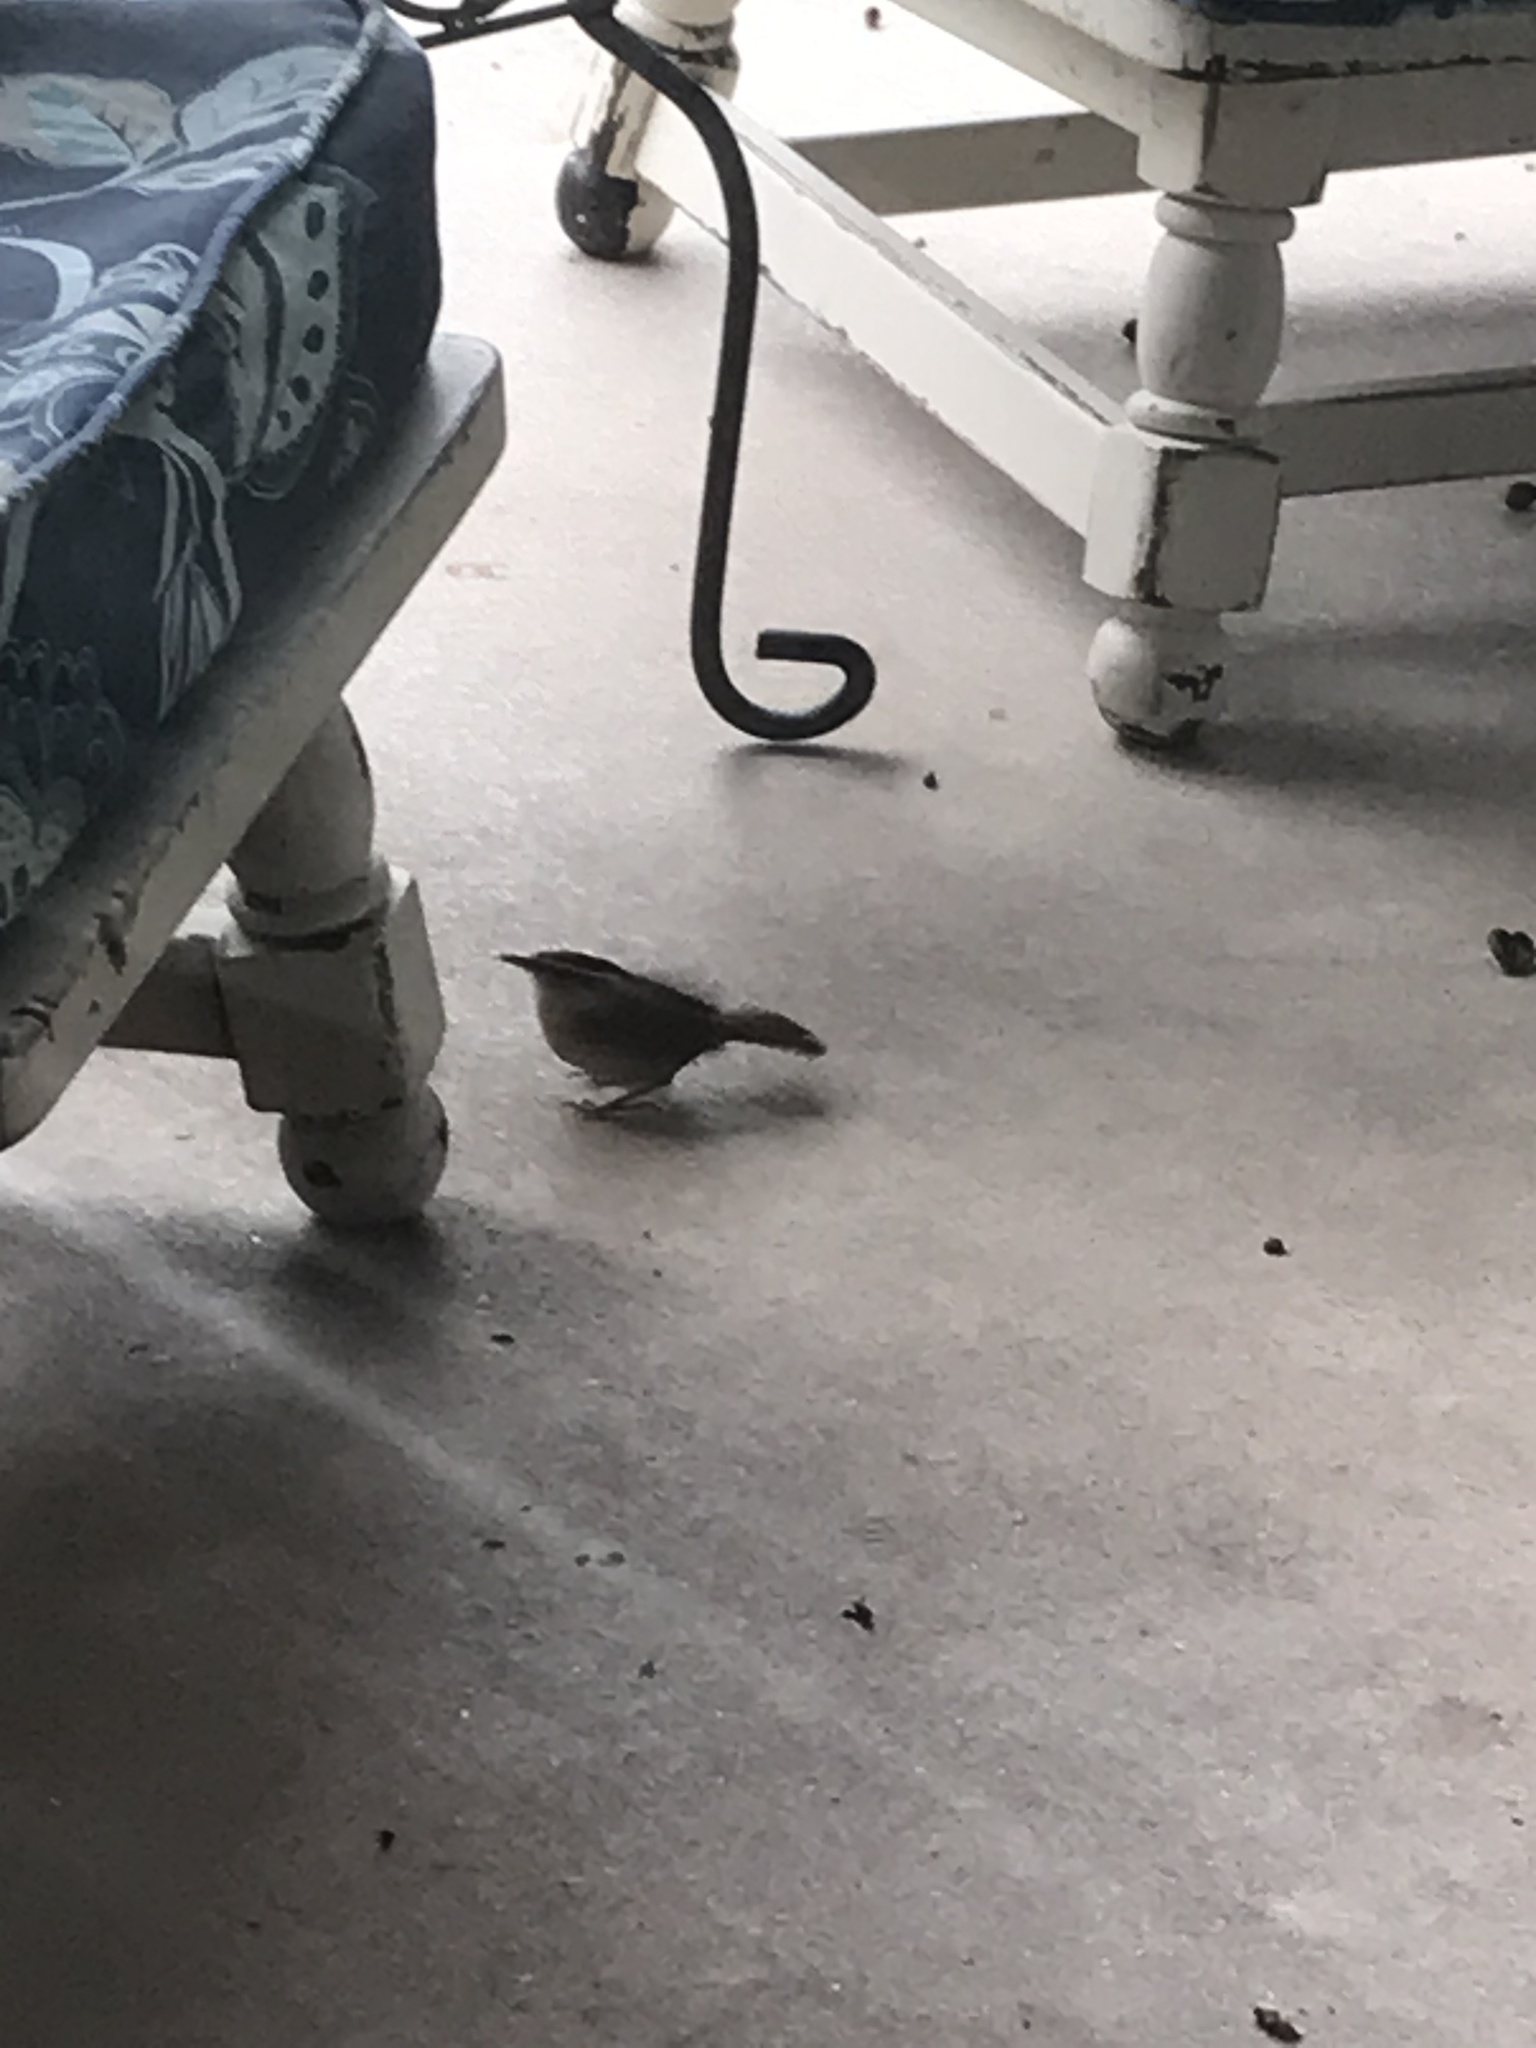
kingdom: Animalia
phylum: Chordata
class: Aves
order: Passeriformes
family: Troglodytidae
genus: Thryothorus
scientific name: Thryothorus ludovicianus
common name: Carolina wren
